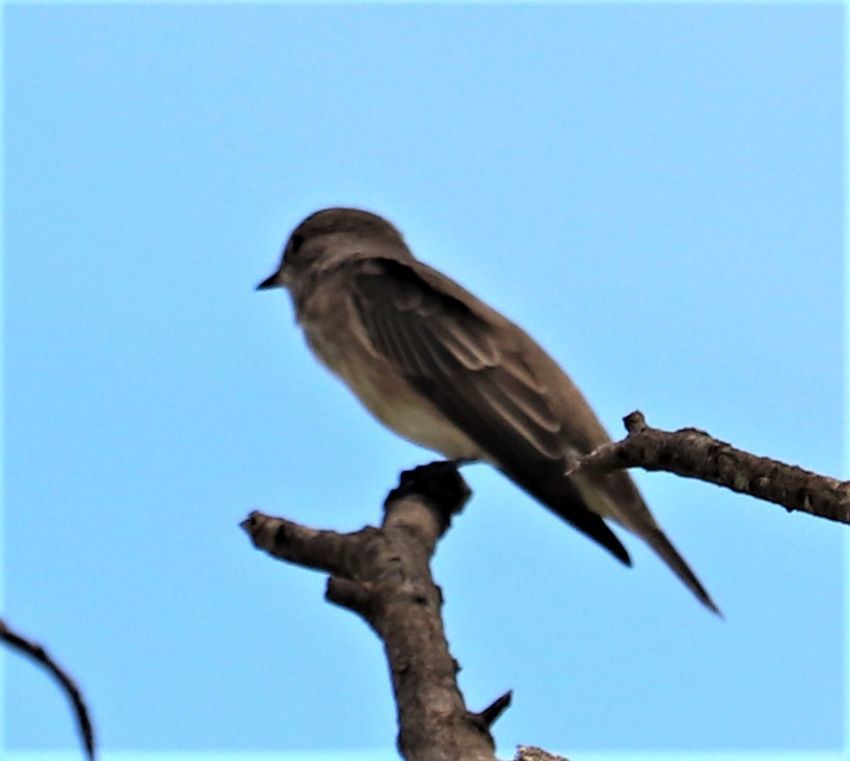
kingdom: Animalia
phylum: Chordata
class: Aves
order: Passeriformes
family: Muscicapidae
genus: Muscicapa
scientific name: Muscicapa striata
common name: Spotted flycatcher
